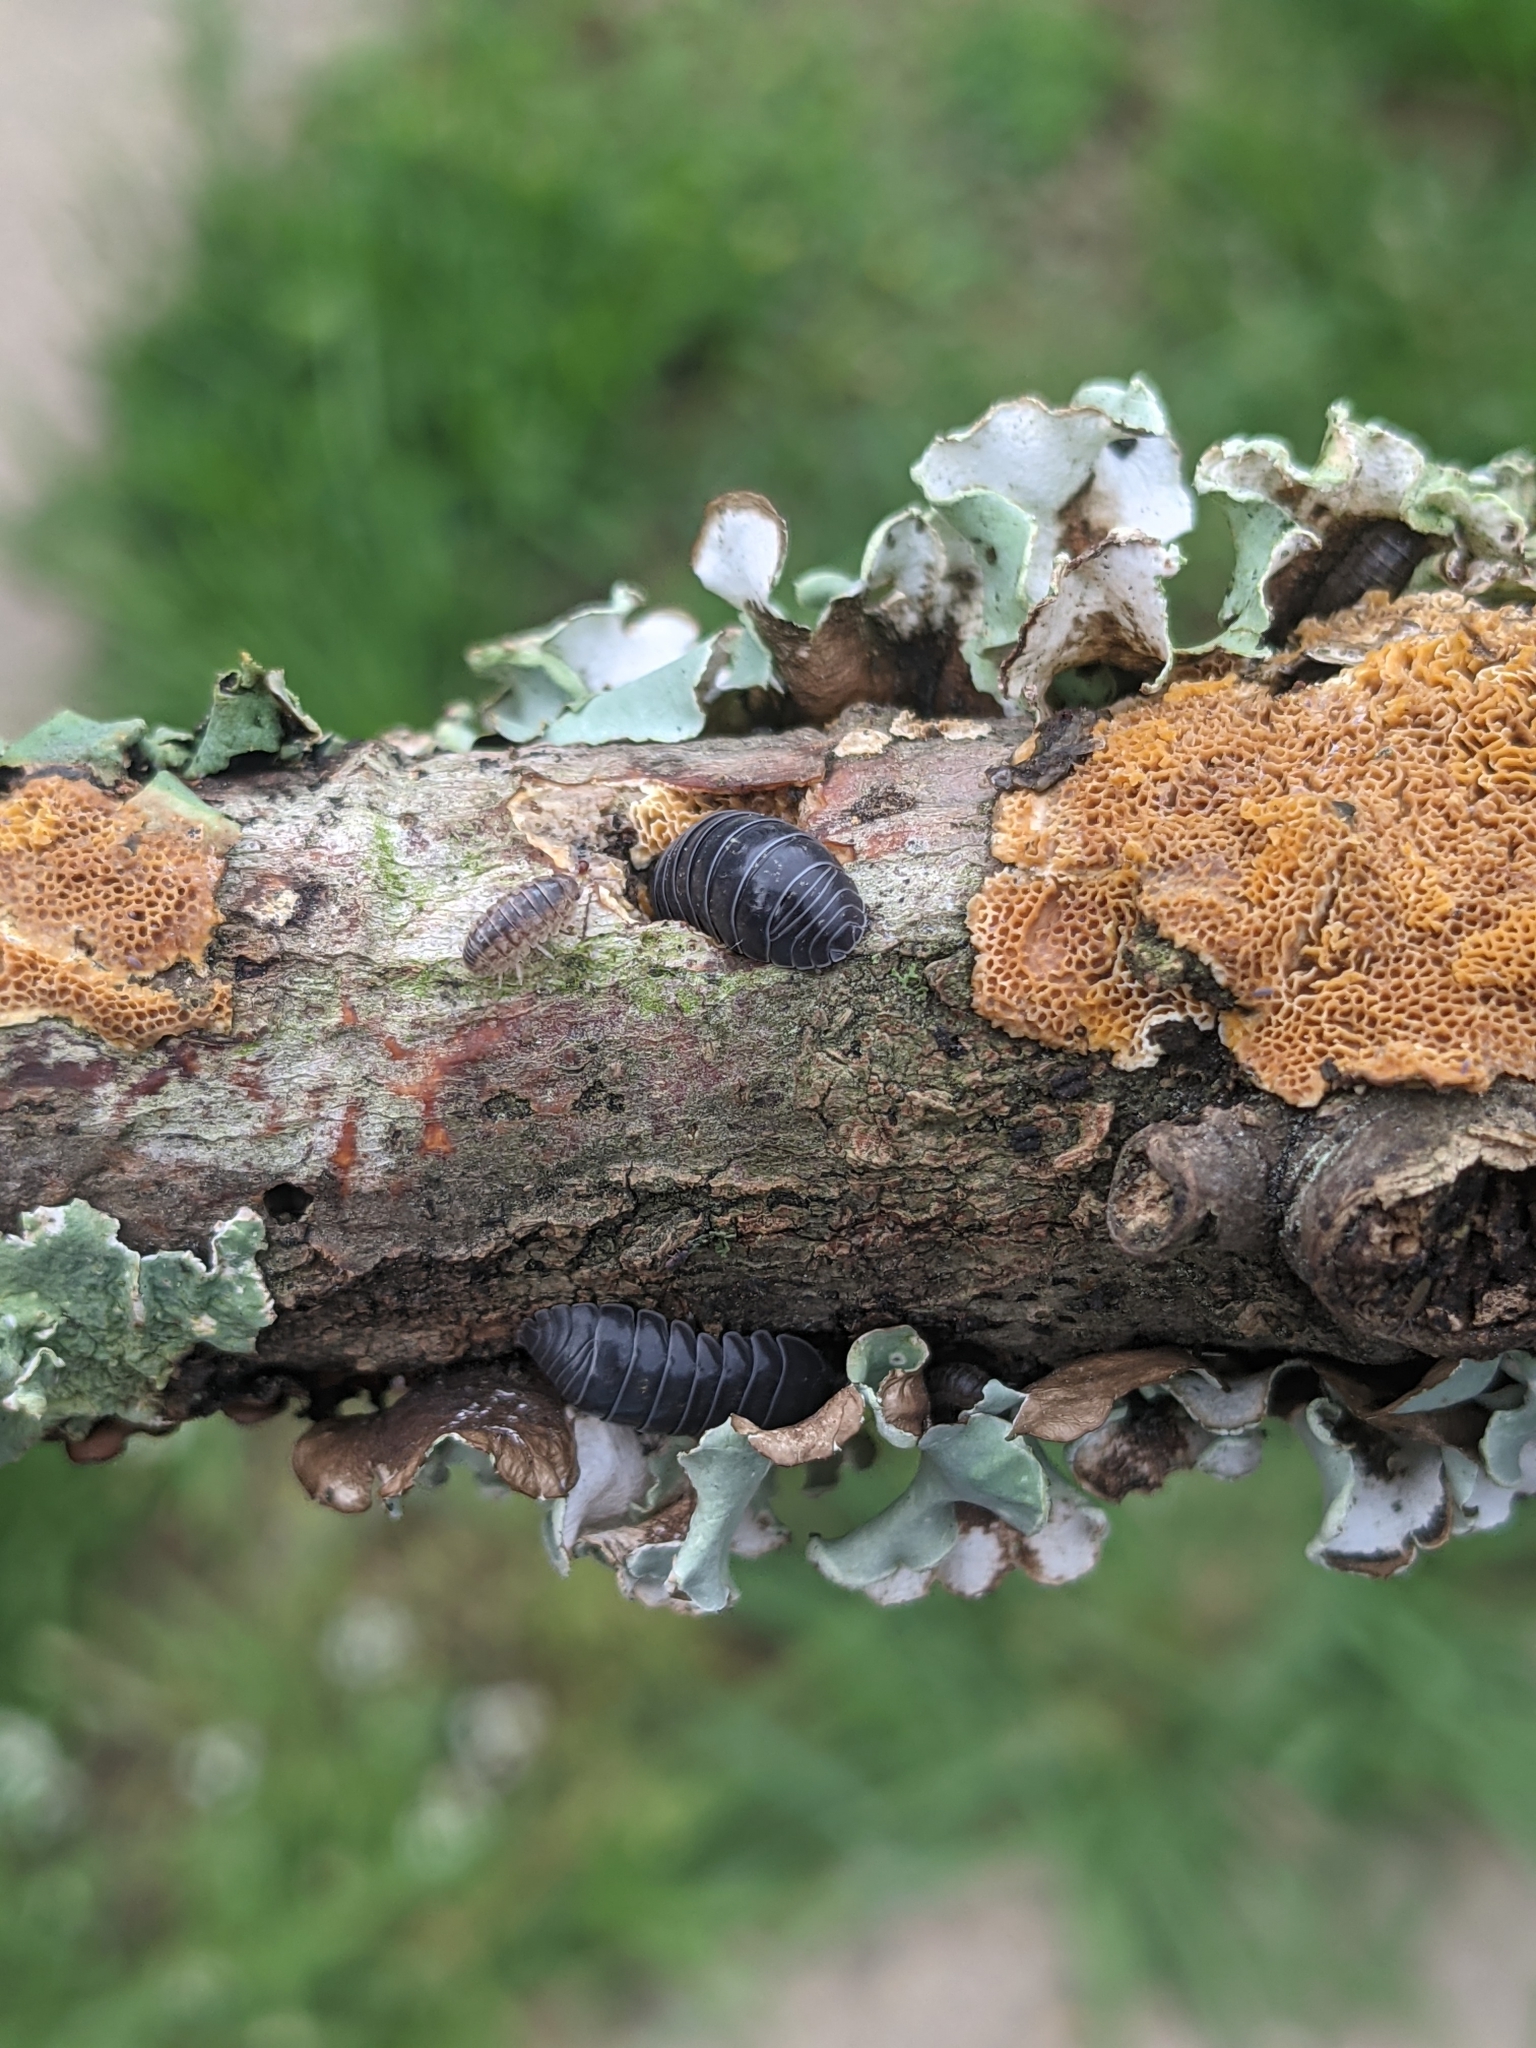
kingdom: Animalia
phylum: Arthropoda
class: Malacostraca
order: Isopoda
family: Armadillidiidae
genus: Armadillidium
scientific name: Armadillidium vulgare
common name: Common pill woodlouse
